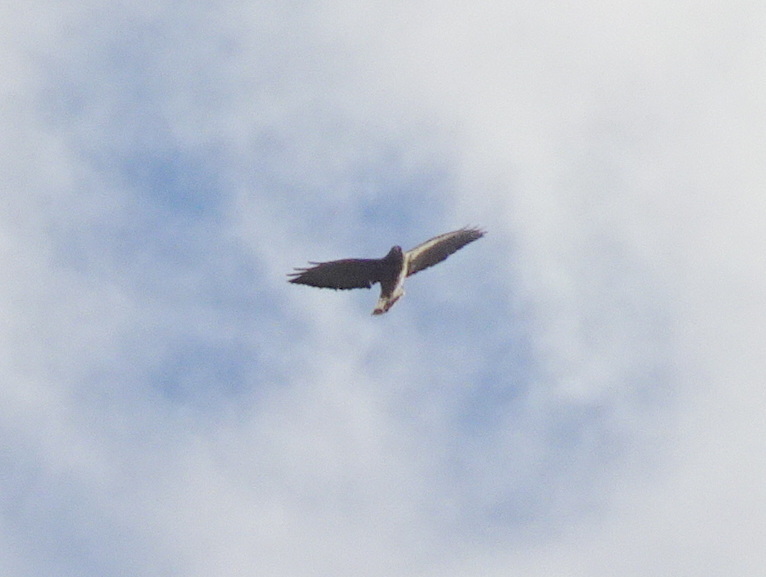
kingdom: Animalia
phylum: Chordata
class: Aves
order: Accipitriformes
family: Accipitridae
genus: Buteo
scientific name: Buteo platypterus
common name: Broad-winged hawk
